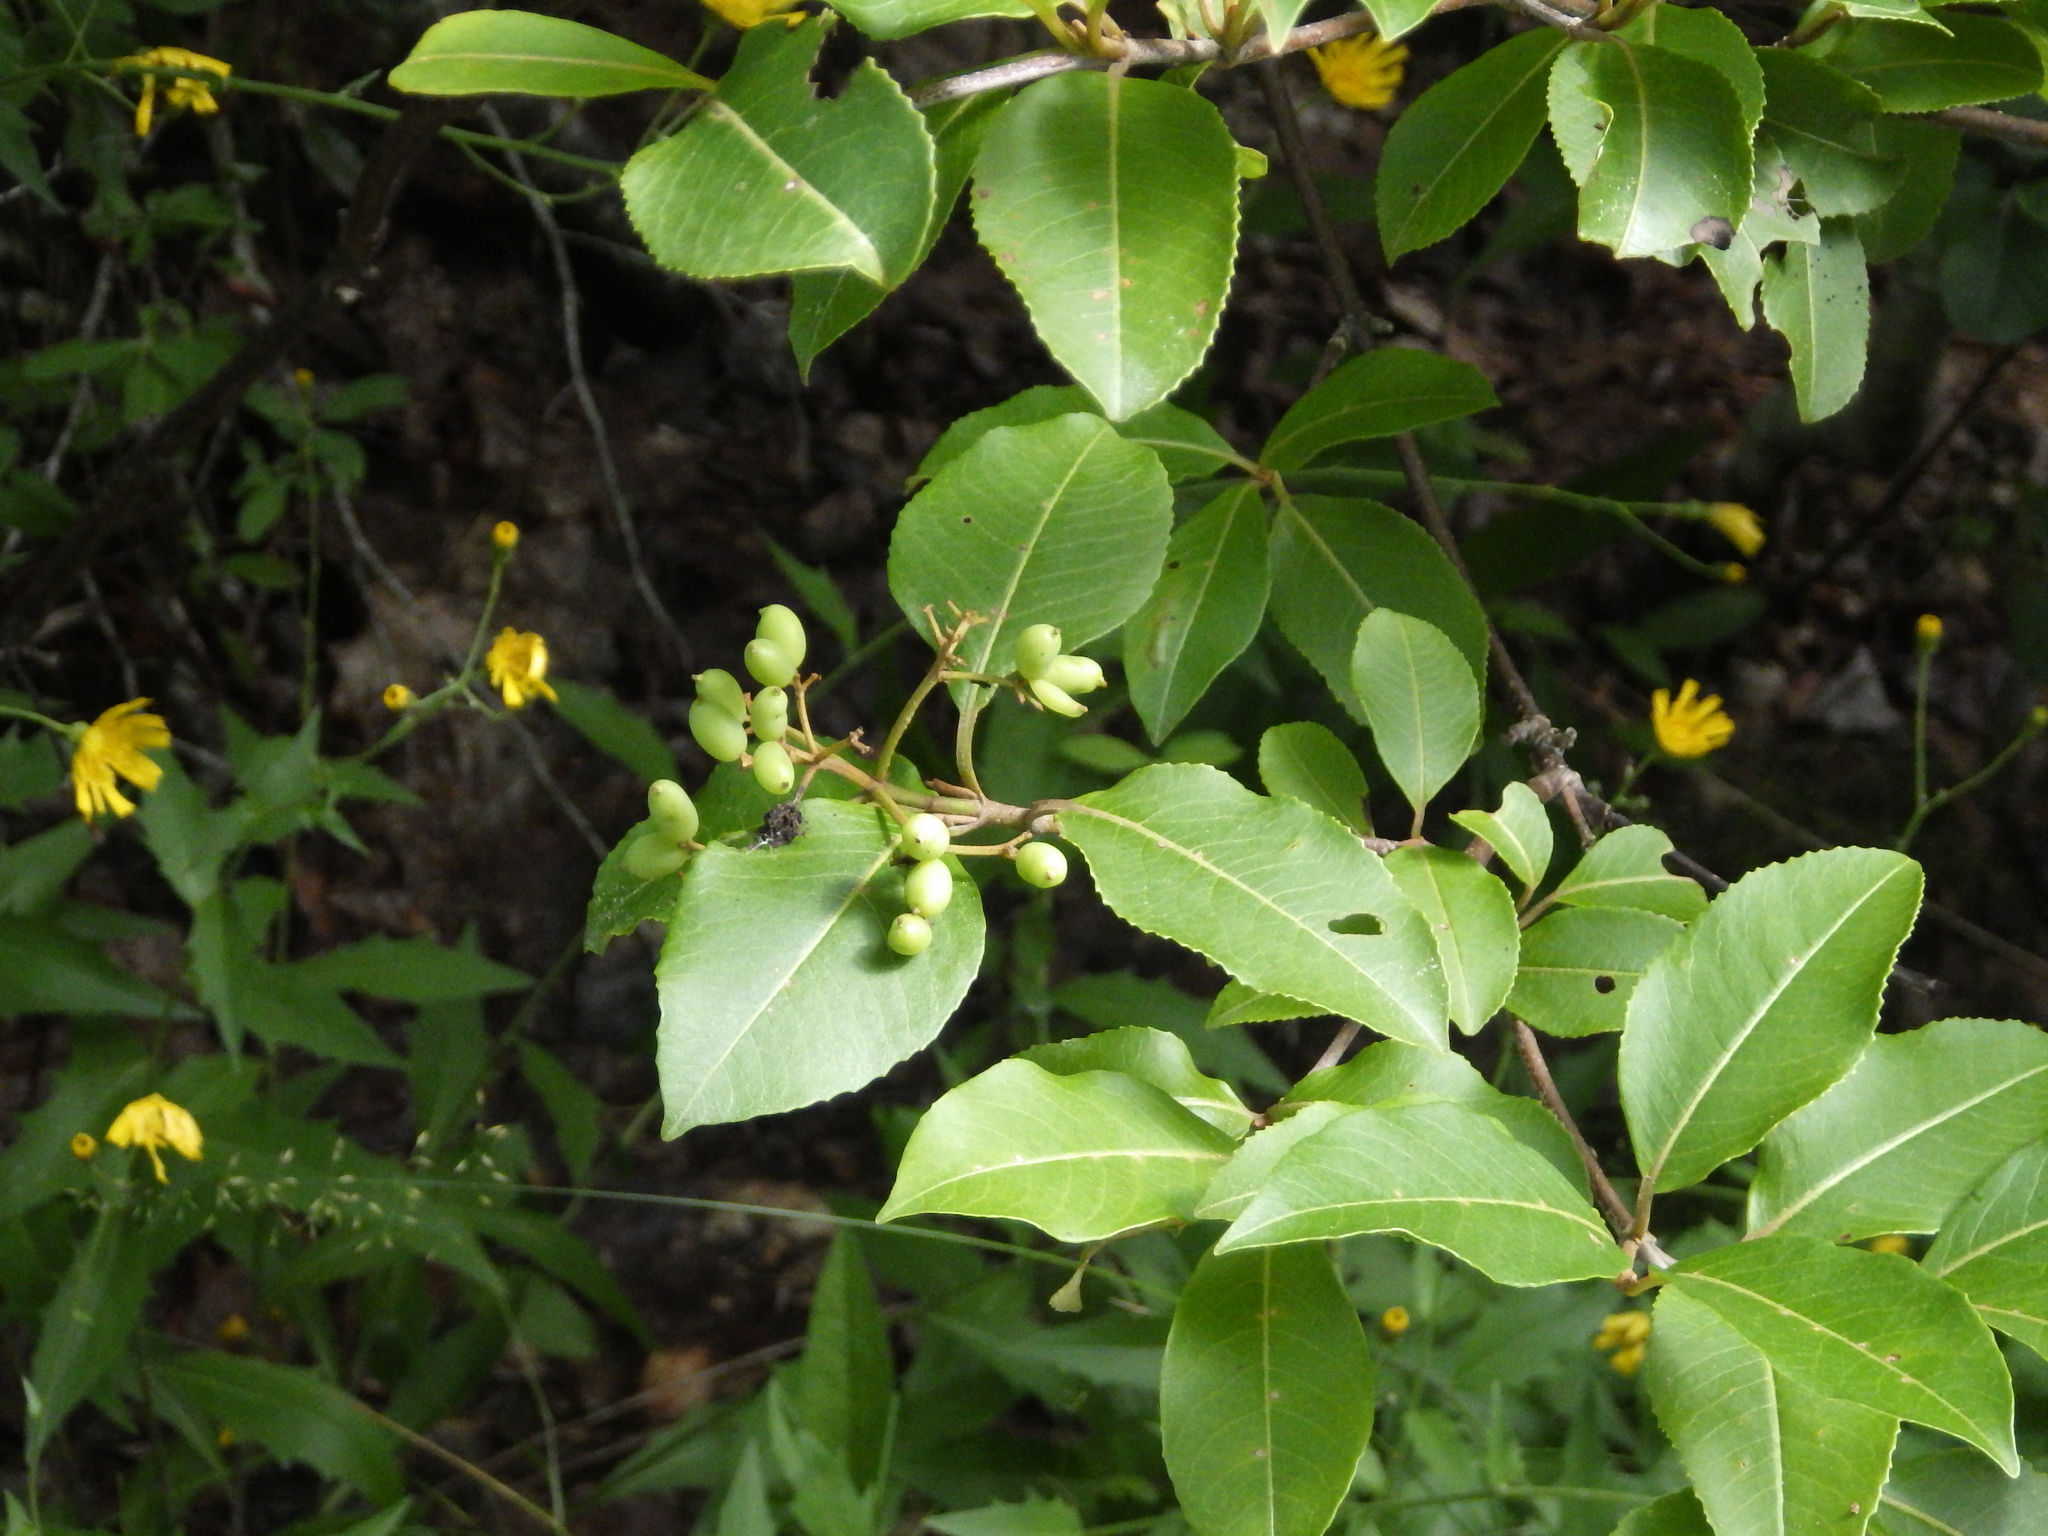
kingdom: Plantae
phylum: Tracheophyta
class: Magnoliopsida
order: Dipsacales
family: Viburnaceae
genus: Viburnum
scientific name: Viburnum cassinoides
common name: Swamp haw
